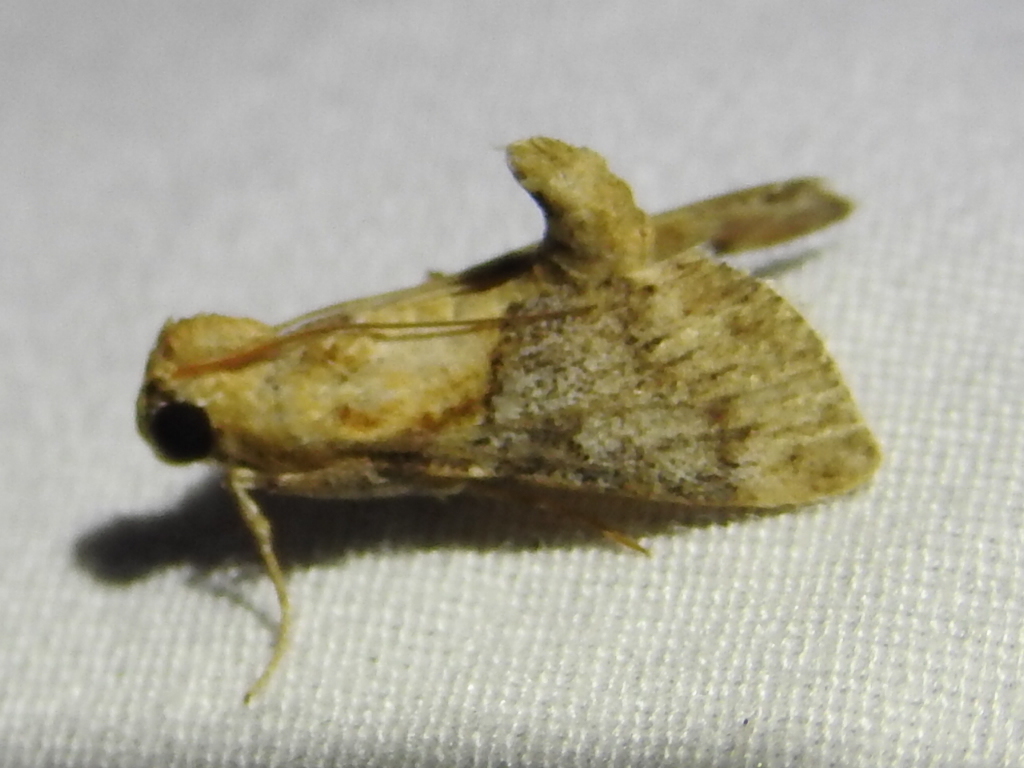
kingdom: Animalia
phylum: Arthropoda
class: Insecta
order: Lepidoptera
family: Pyralidae
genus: Cacozelia
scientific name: Cacozelia elegans
